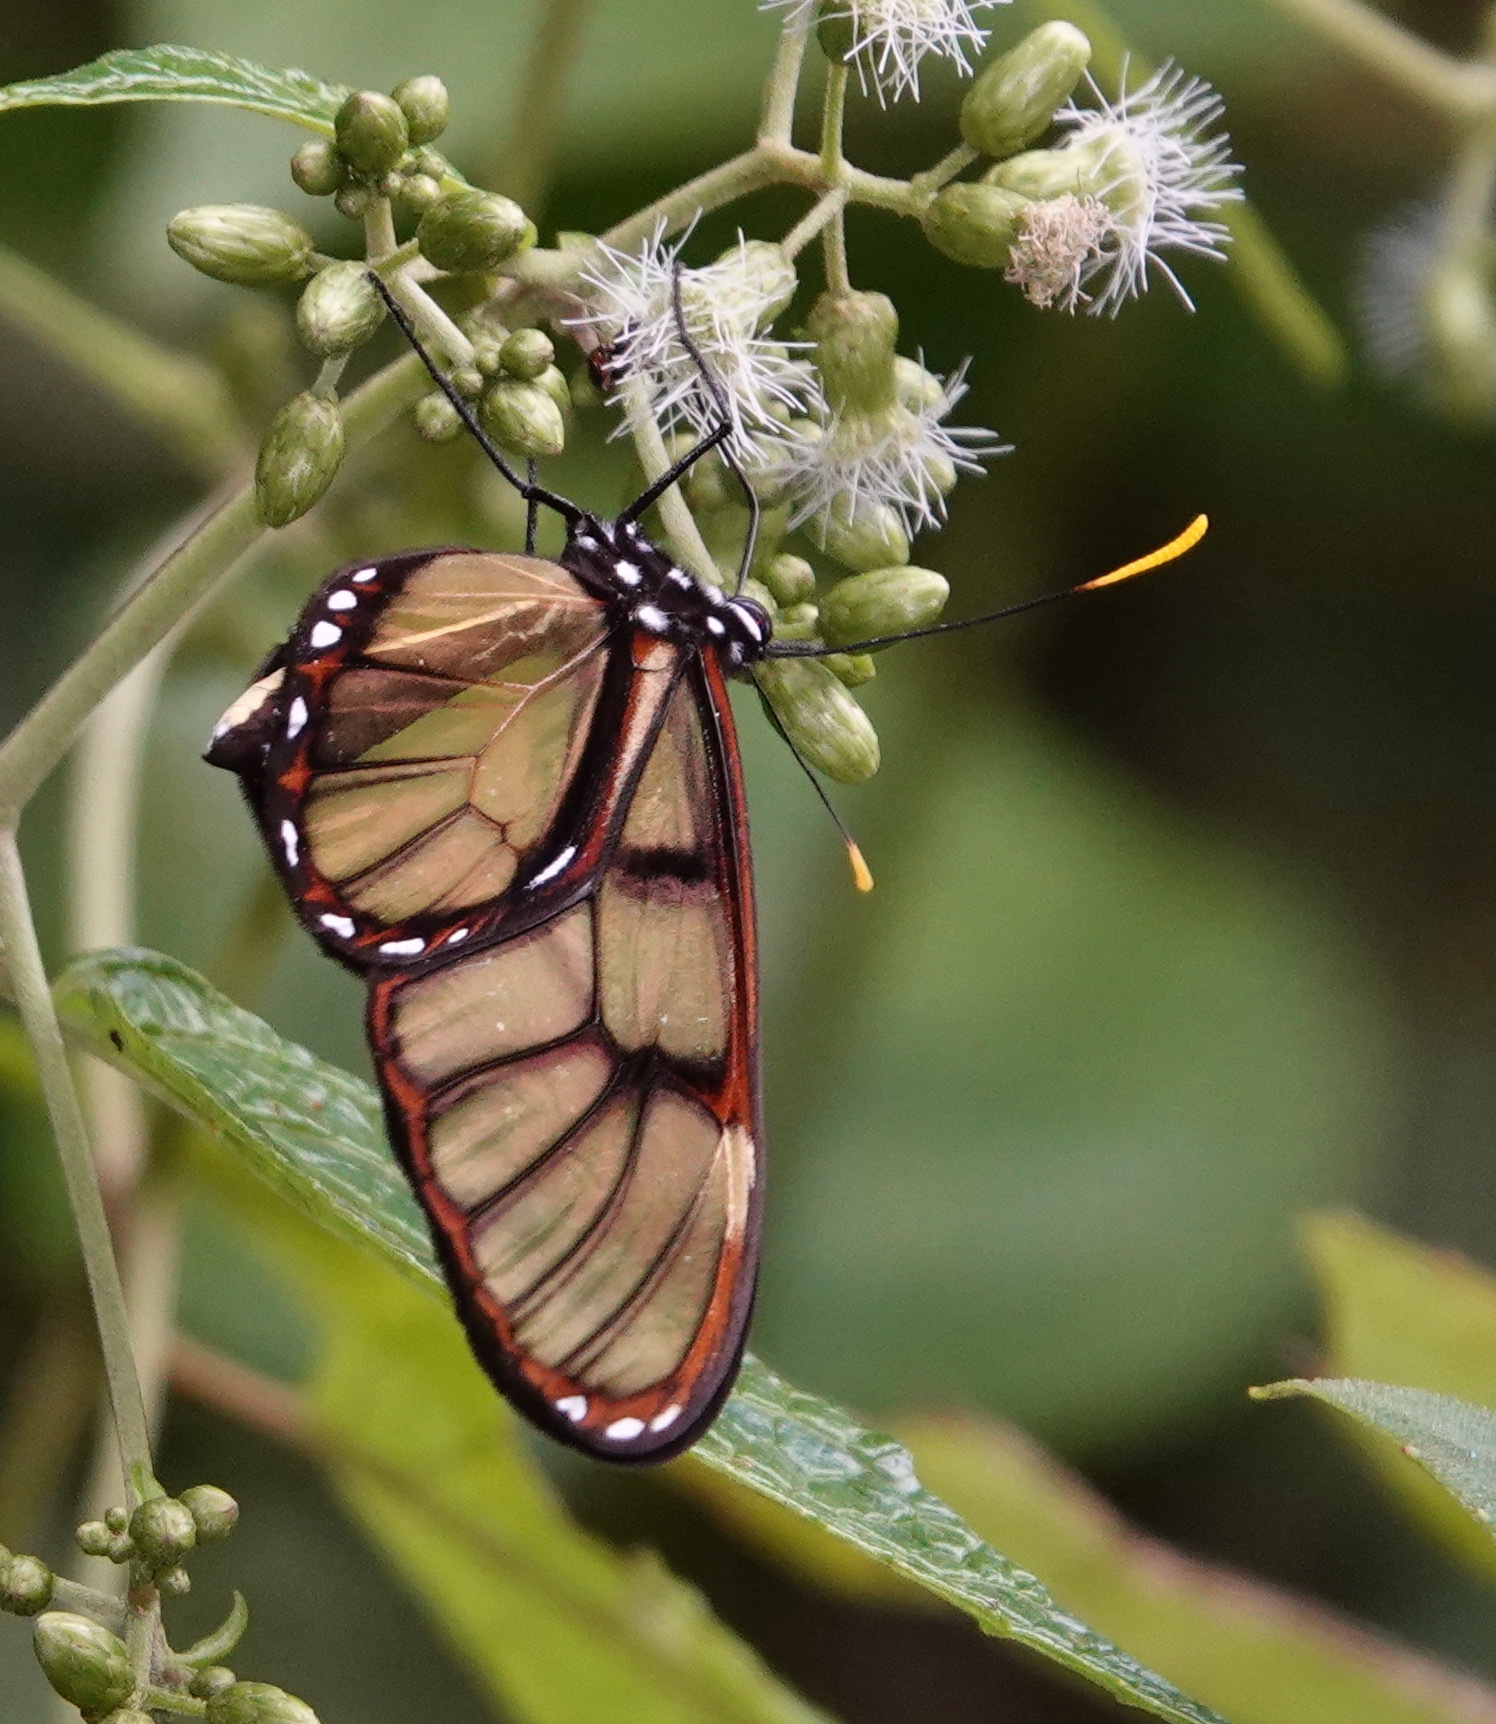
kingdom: Animalia
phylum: Arthropoda
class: Insecta
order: Lepidoptera
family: Nymphalidae
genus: Dircenna
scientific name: Dircenna adina
